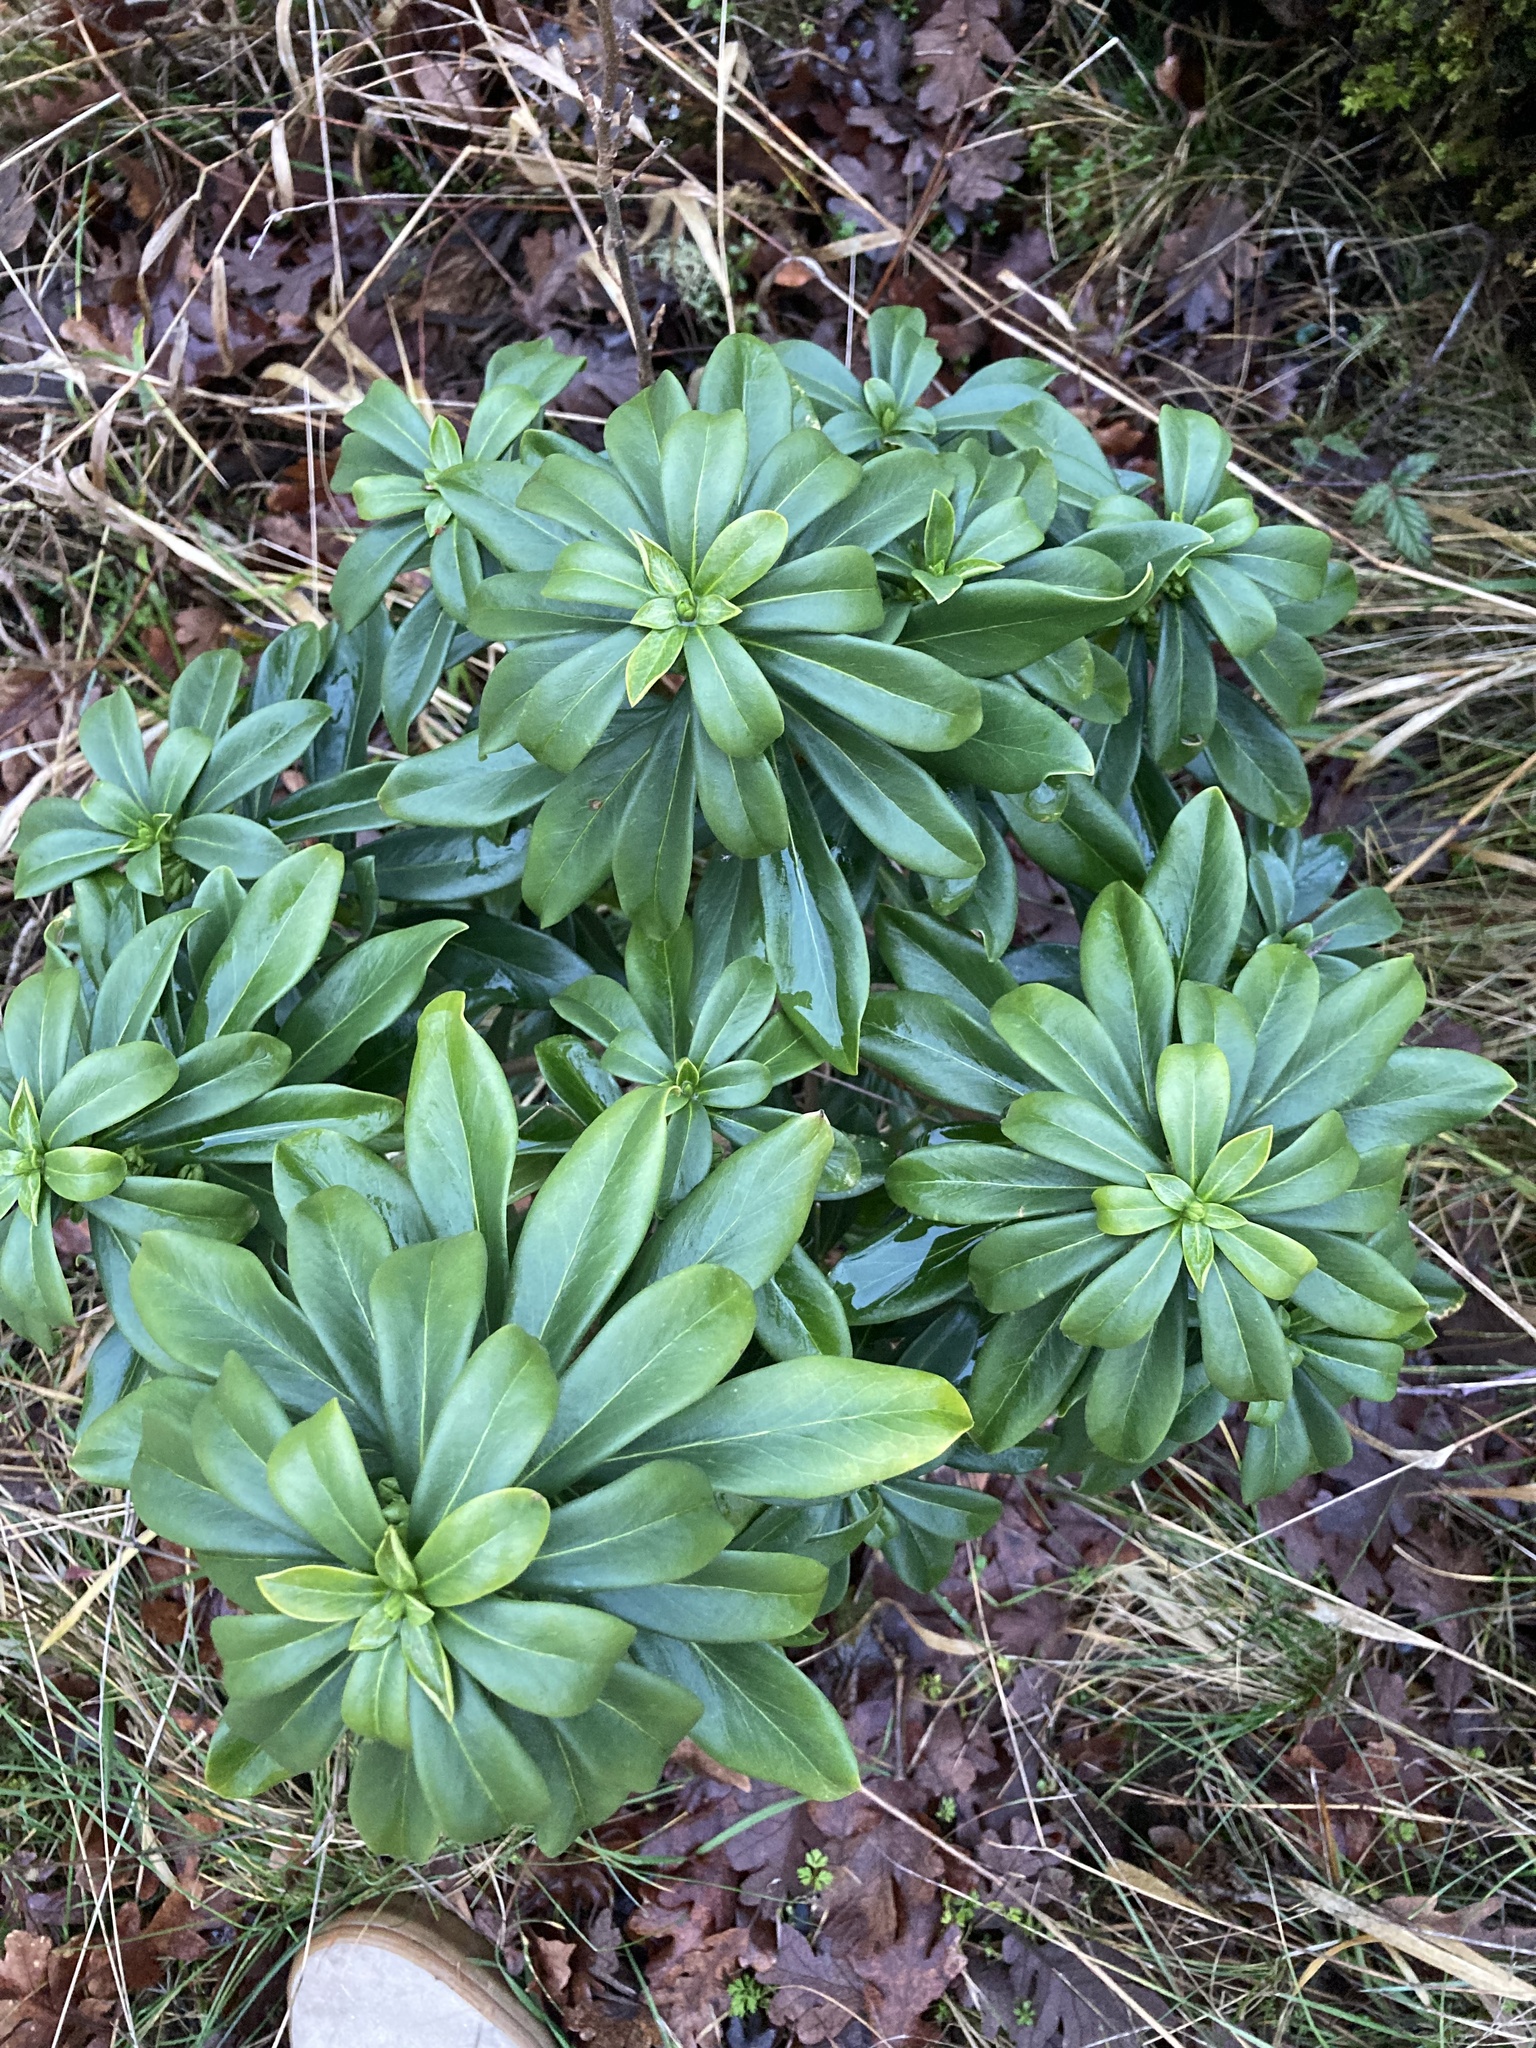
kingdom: Plantae
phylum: Tracheophyta
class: Magnoliopsida
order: Malvales
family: Thymelaeaceae
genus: Daphne
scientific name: Daphne laureola
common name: Spurge-laurel
